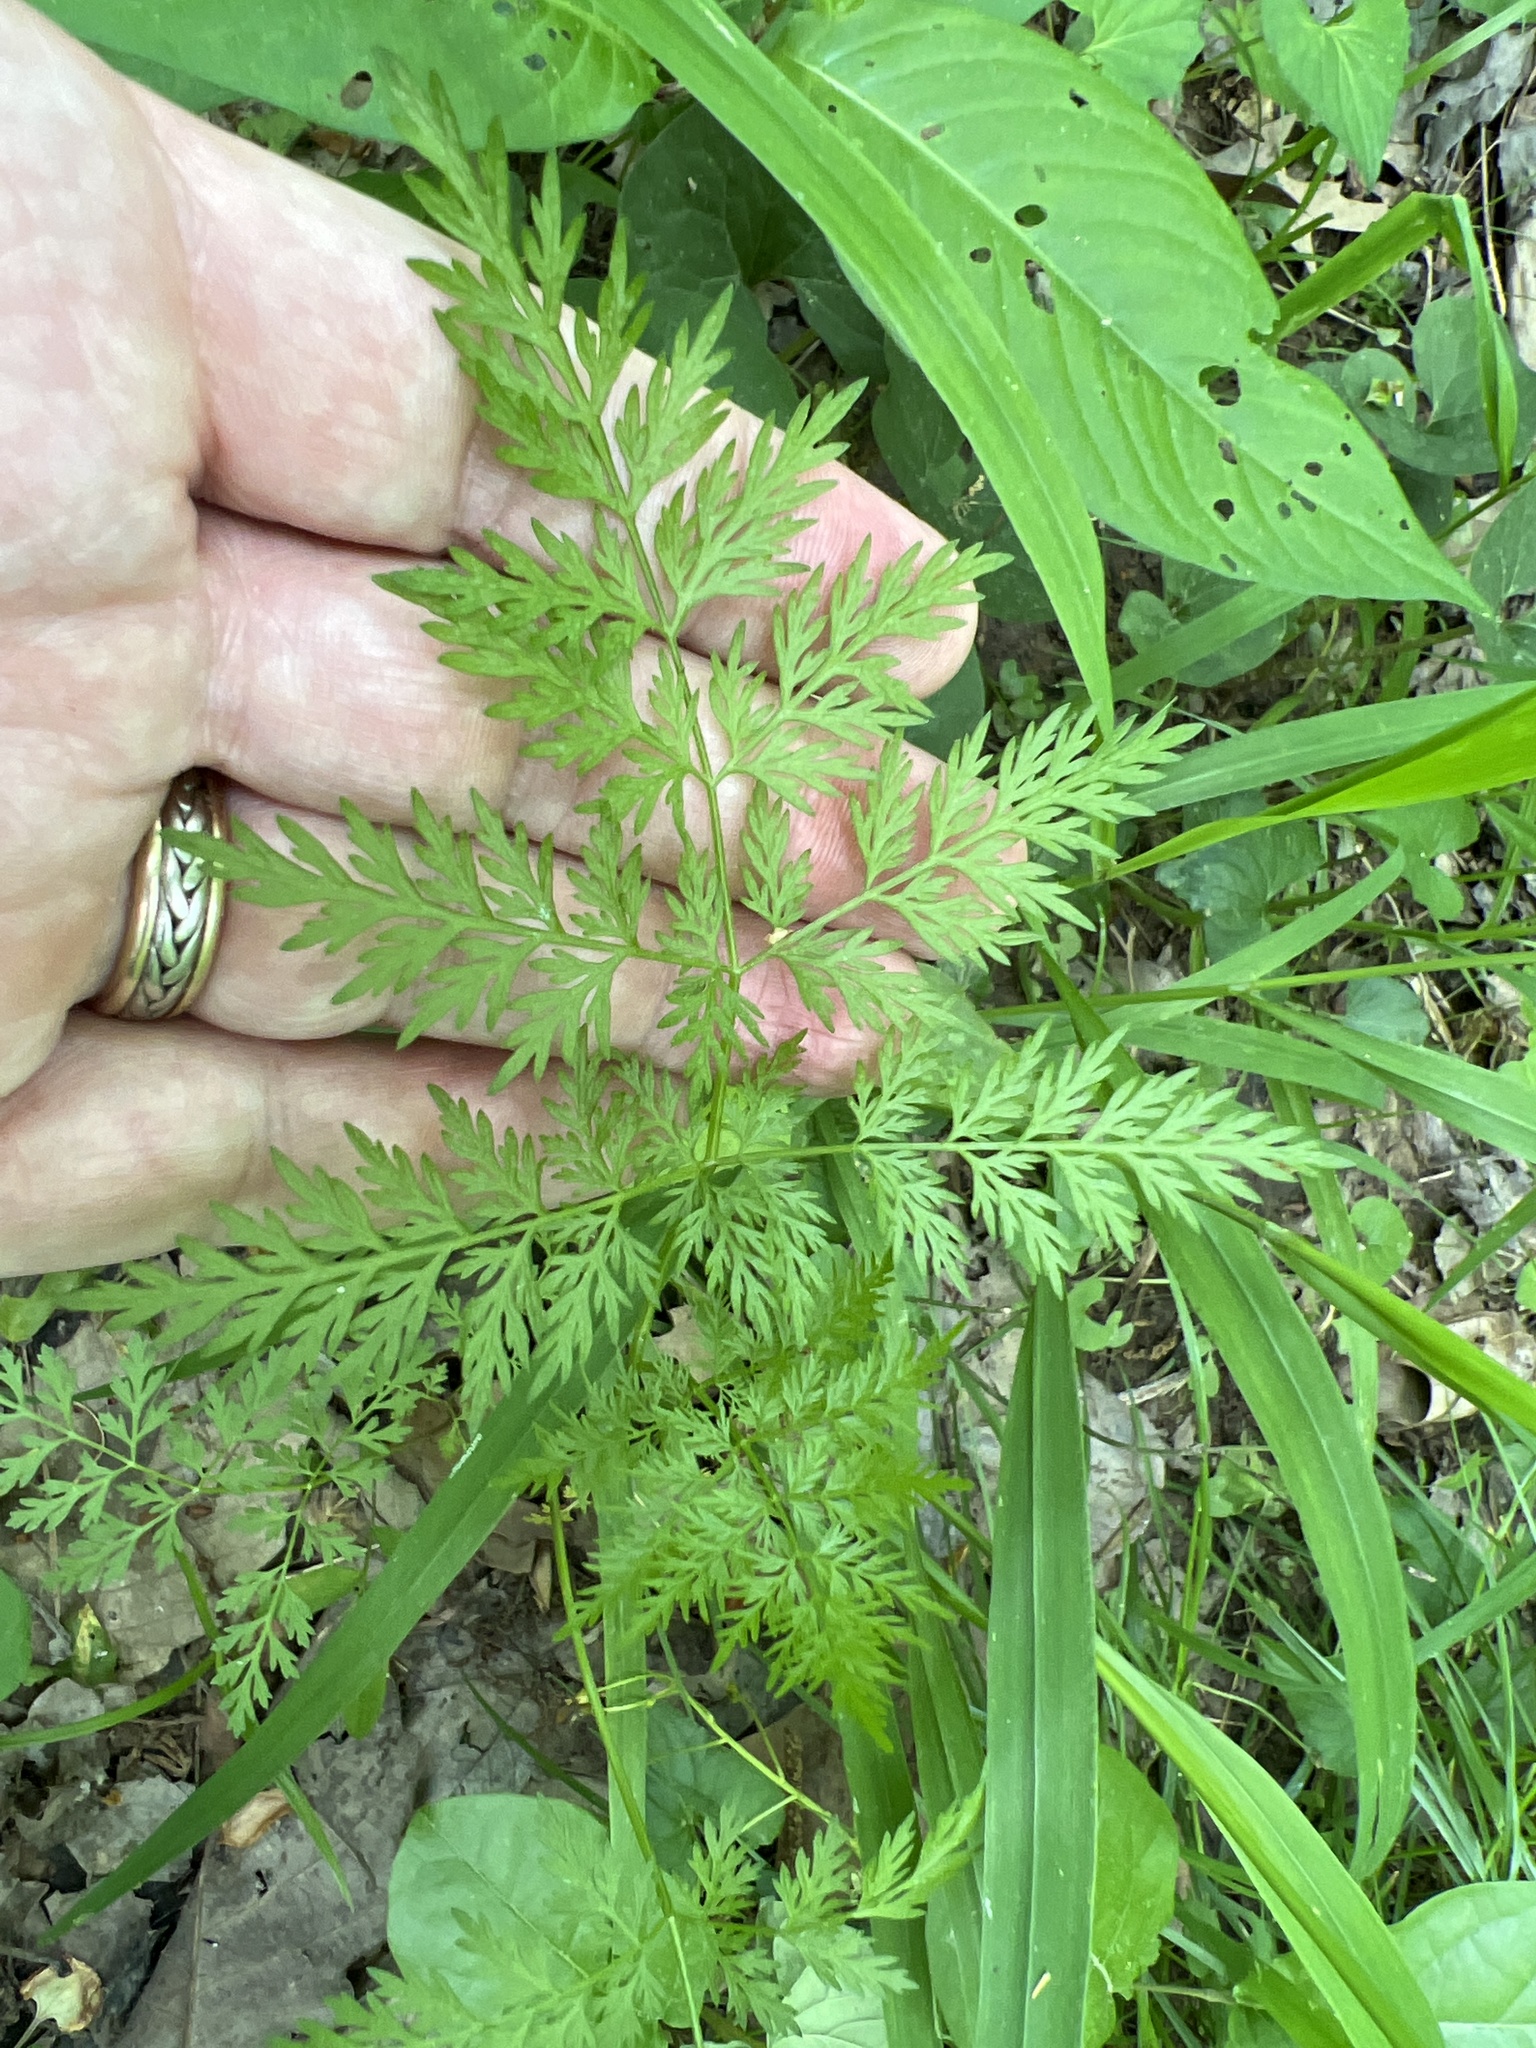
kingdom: Plantae
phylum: Tracheophyta
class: Magnoliopsida
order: Apiales
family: Apiaceae
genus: Trepocarpus
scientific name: Trepocarpus aethusae
